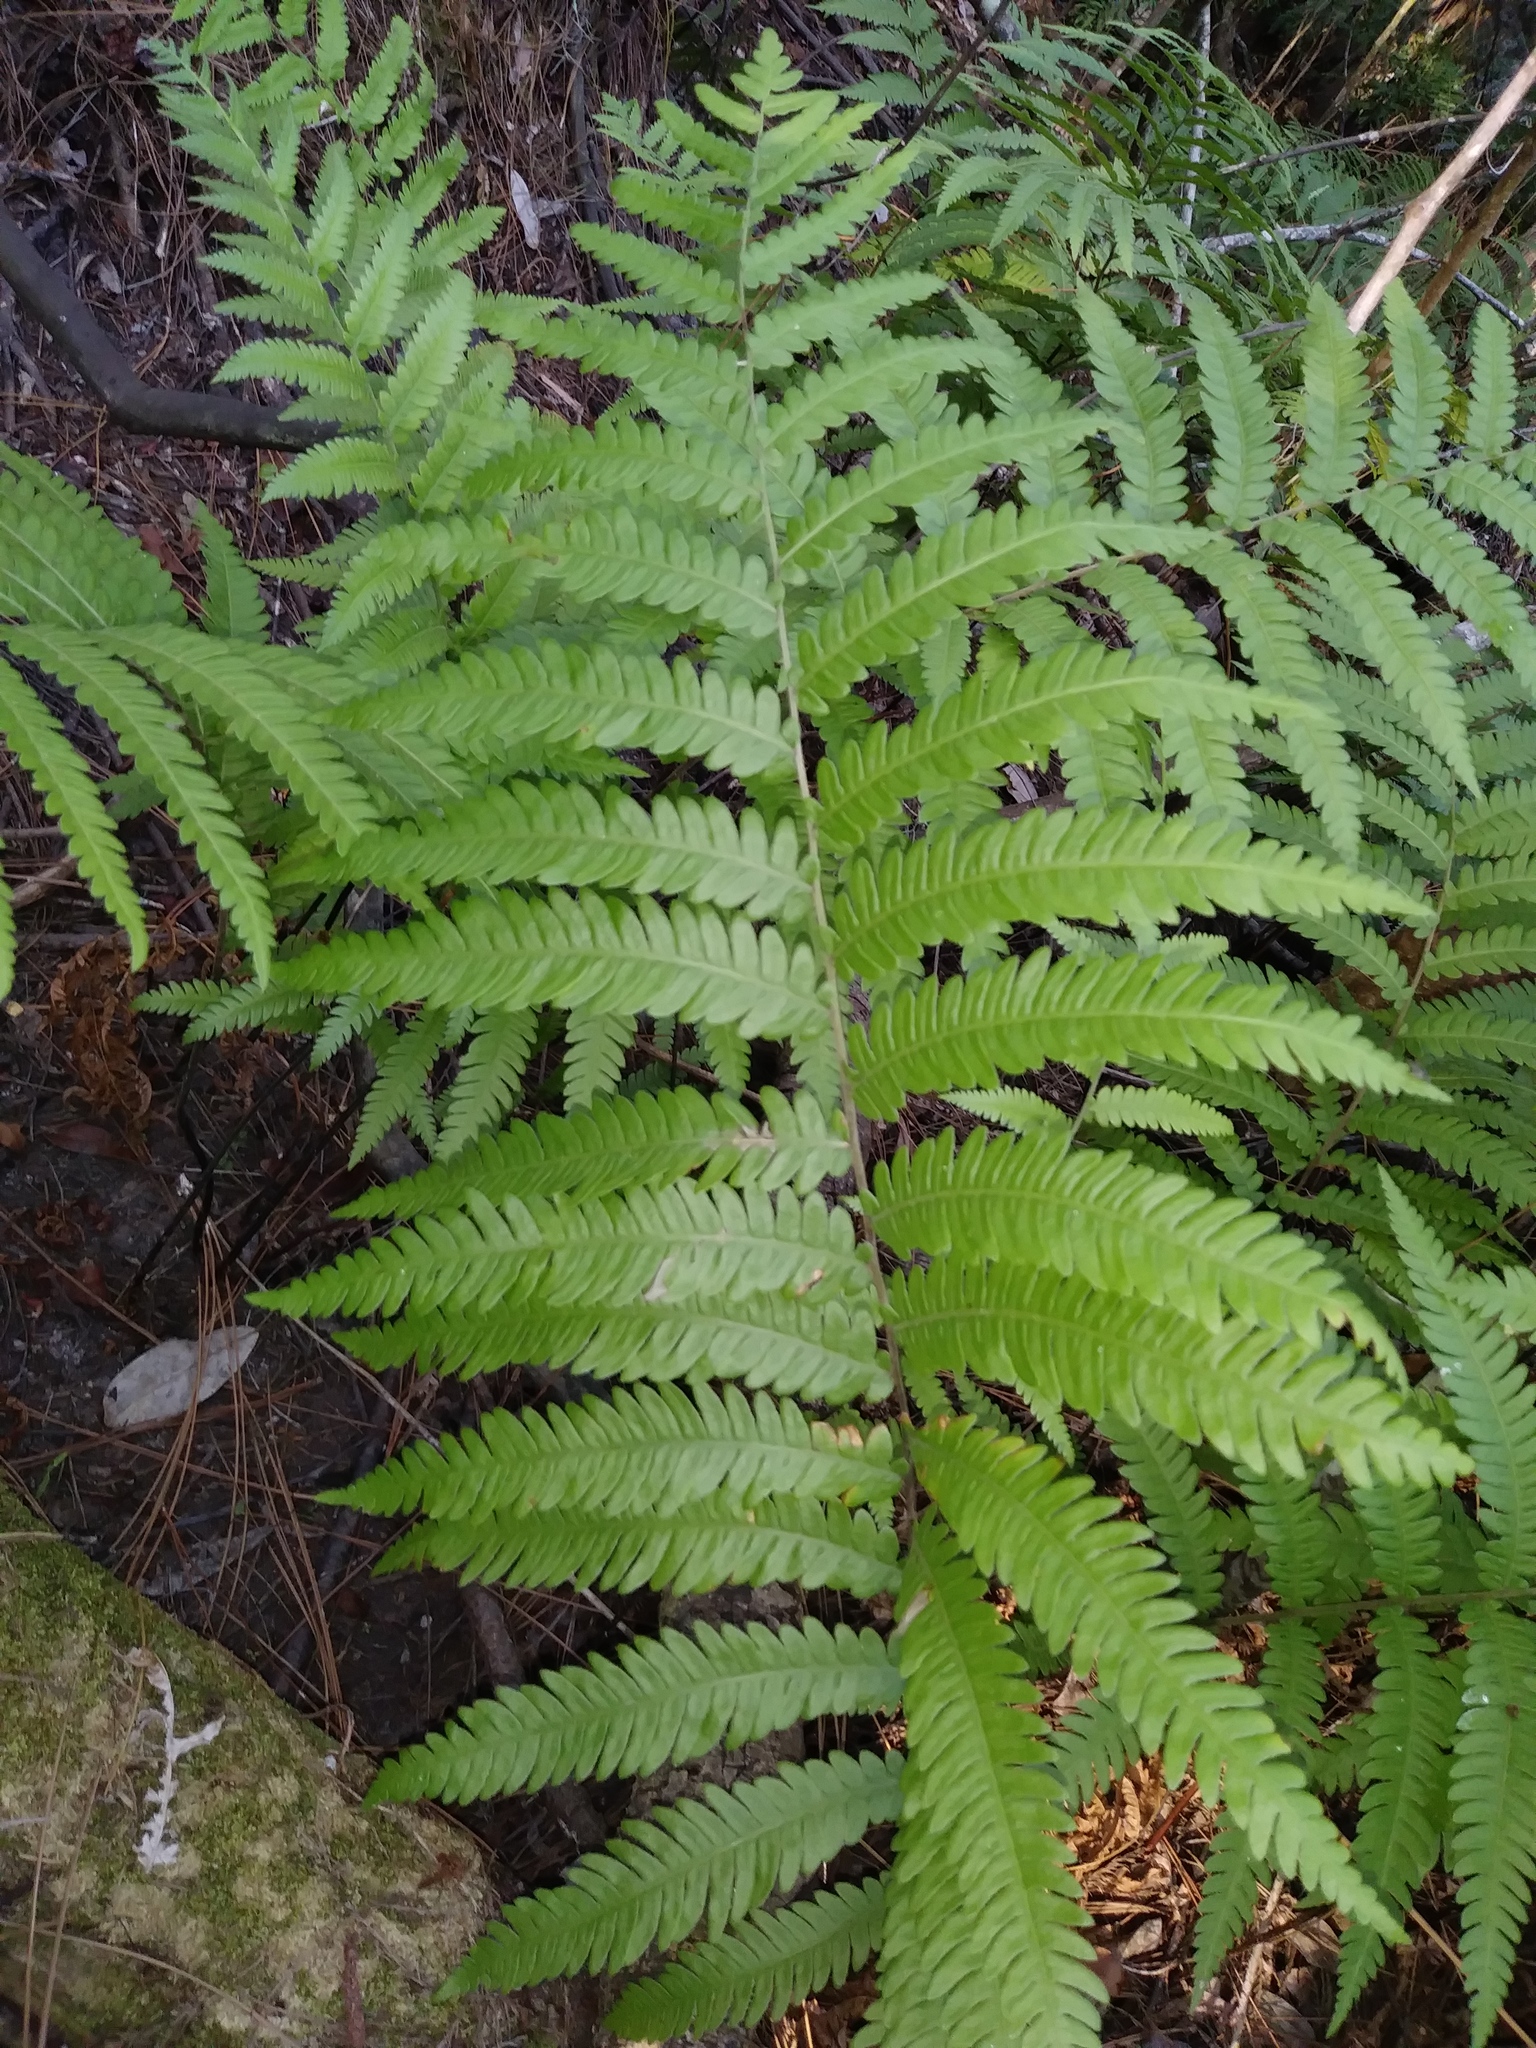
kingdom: Plantae
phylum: Tracheophyta
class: Polypodiopsida
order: Polypodiales
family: Blechnaceae
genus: Anchistea
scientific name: Anchistea virginica
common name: Virginia chain fern
